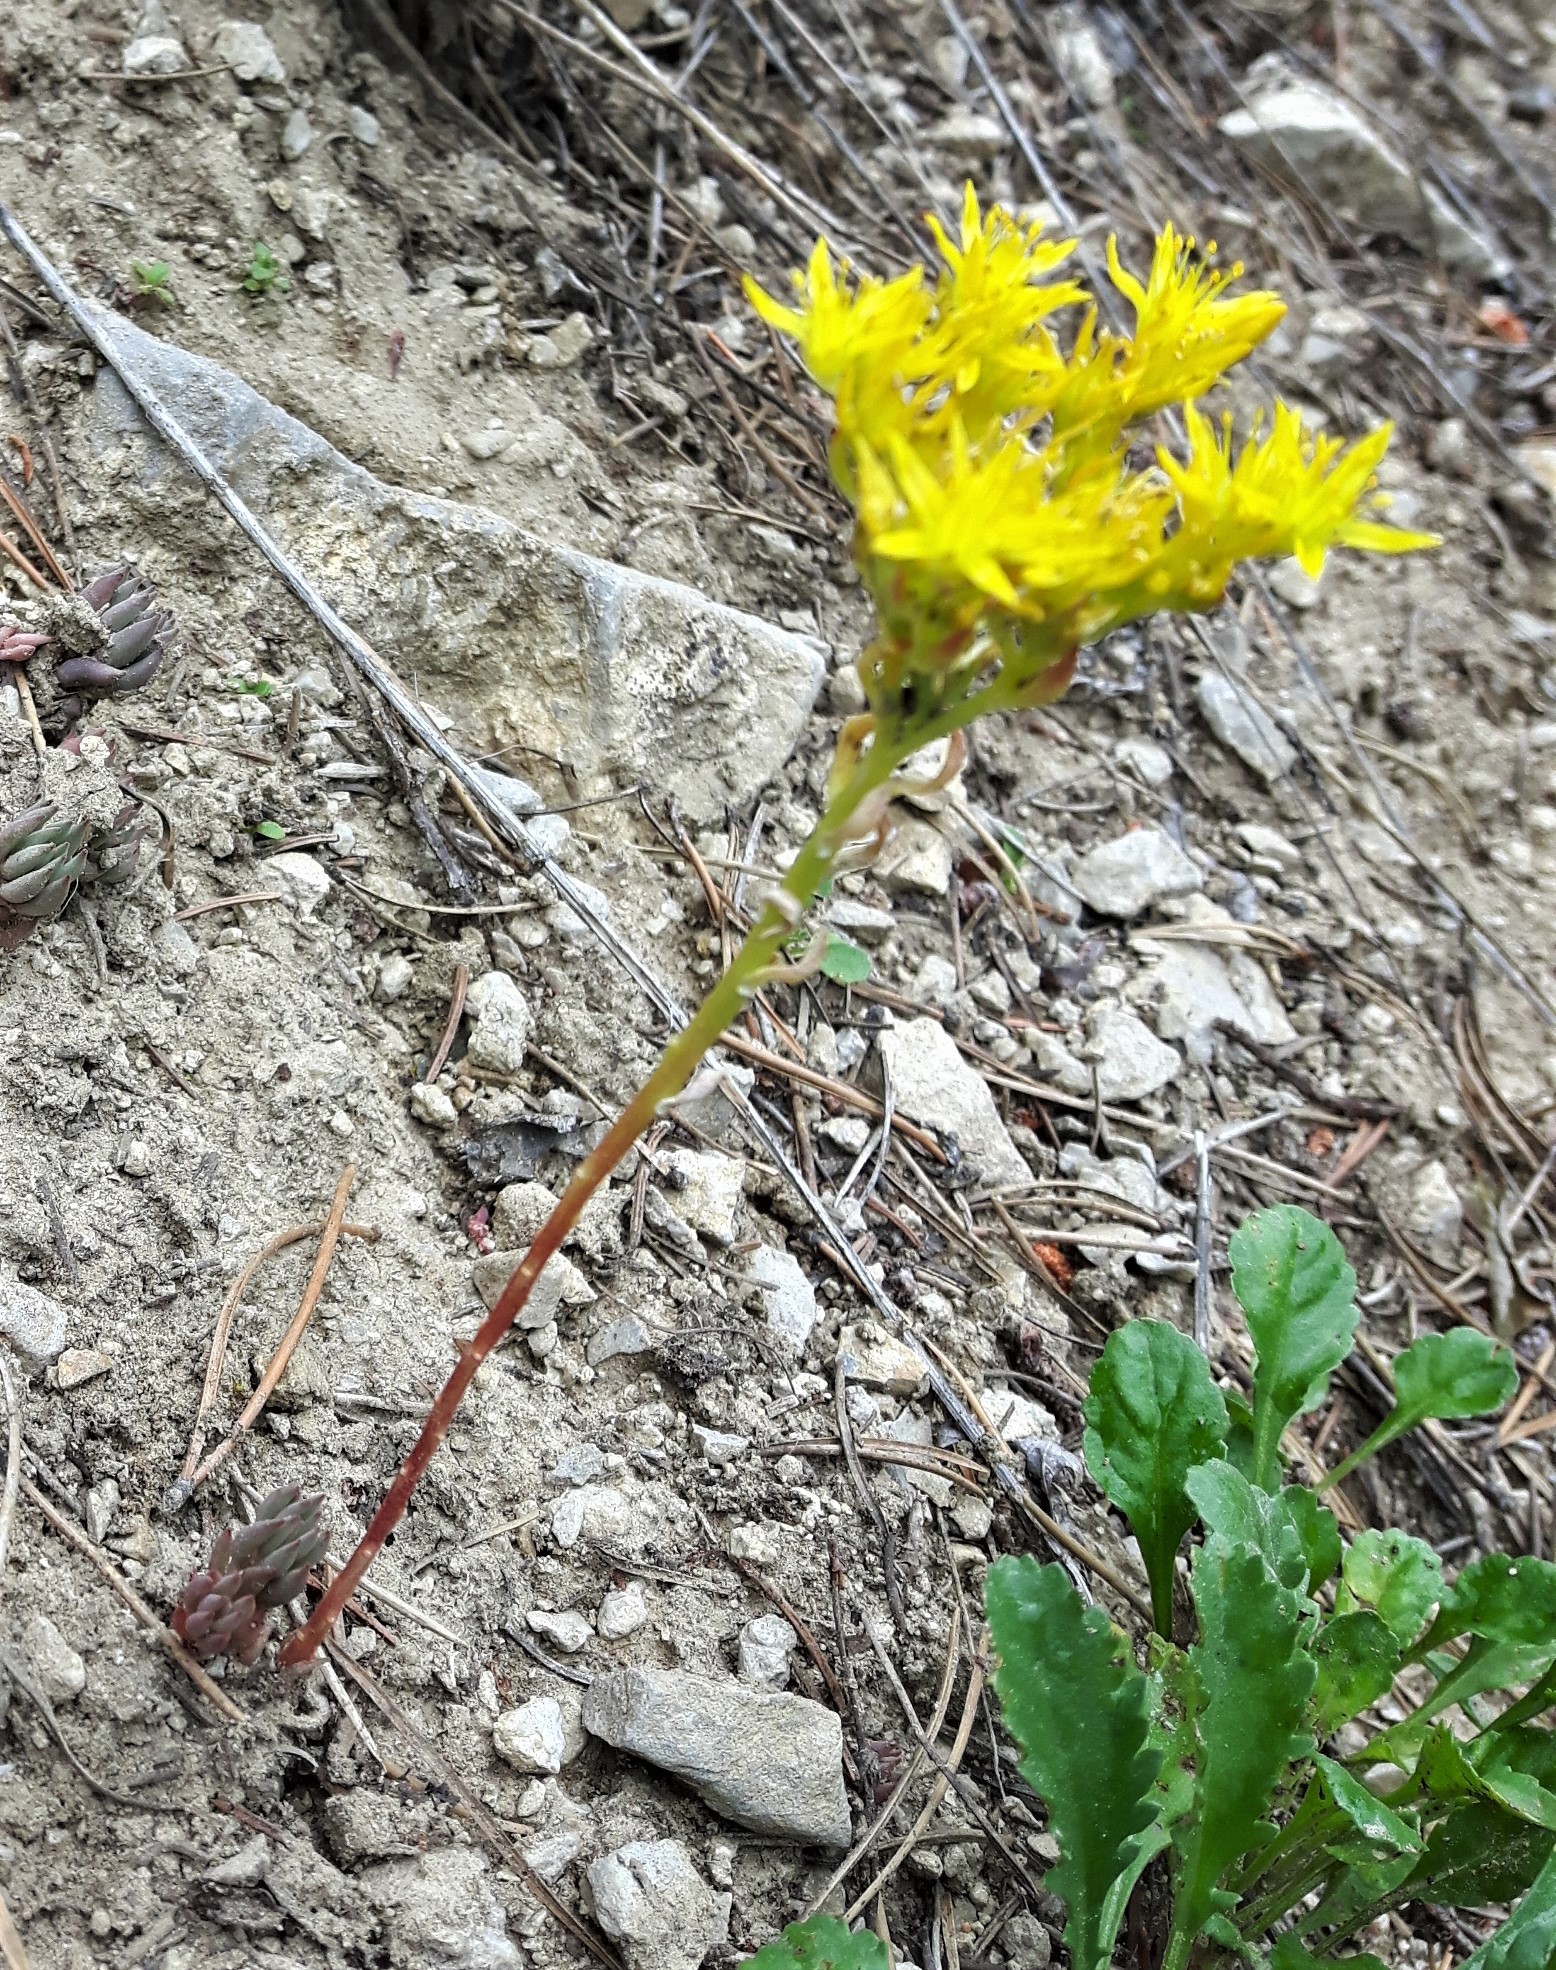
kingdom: Plantae
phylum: Tracheophyta
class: Magnoliopsida
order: Saxifragales
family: Crassulaceae
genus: Sedum
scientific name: Sedum lanceolatum
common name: Common stonecrop
